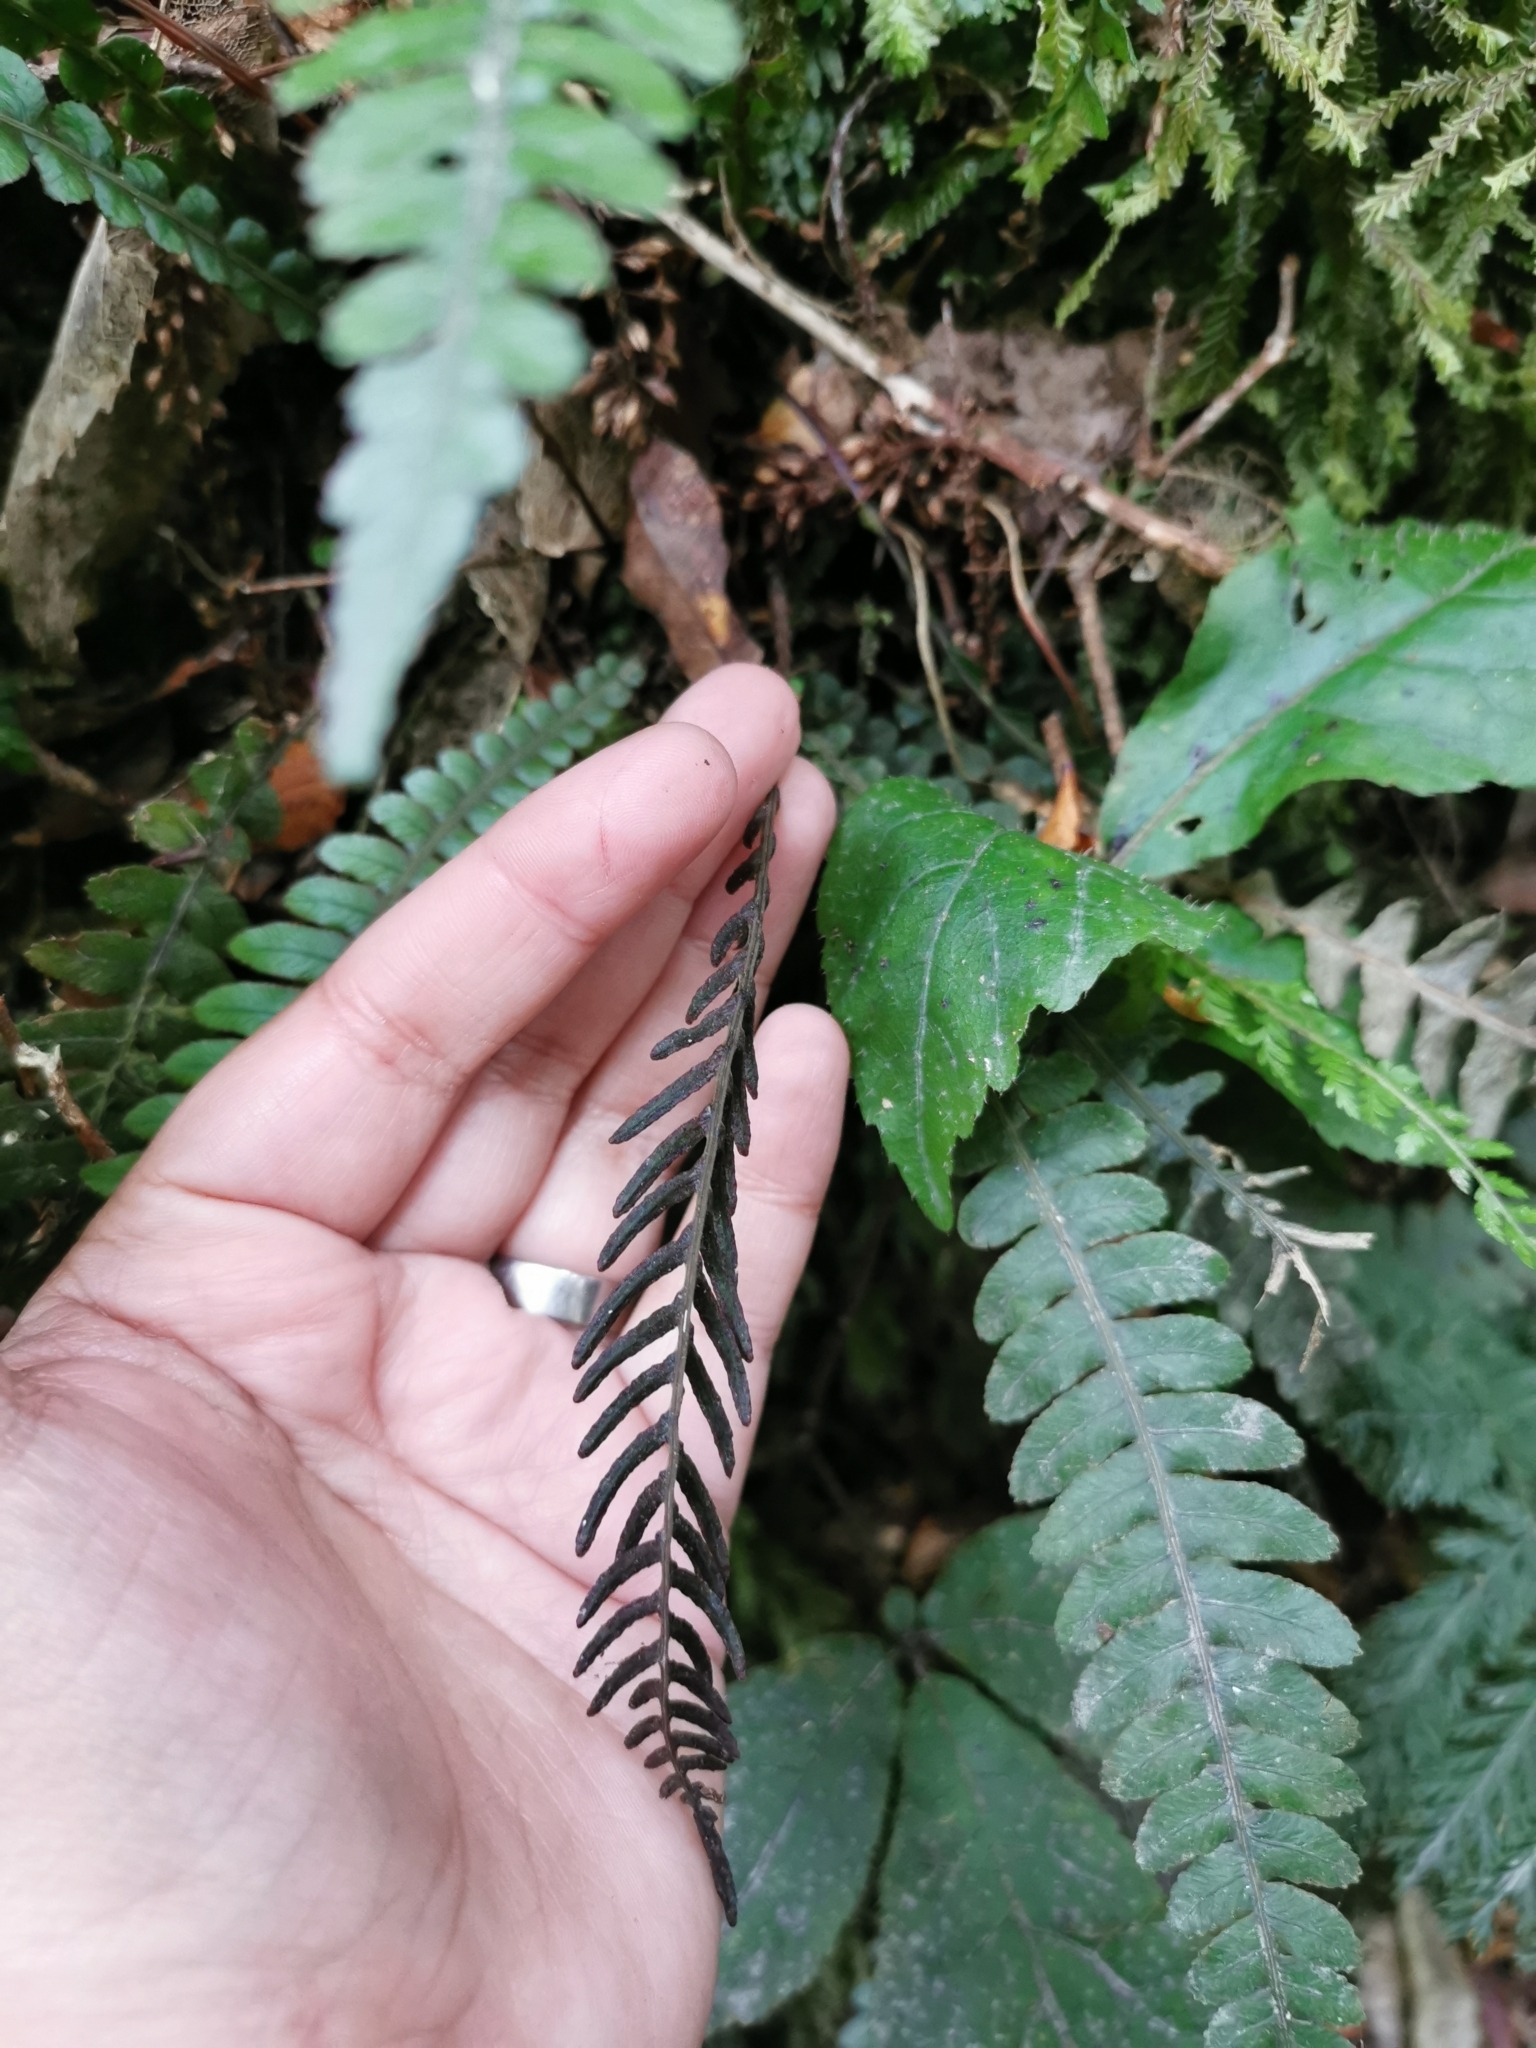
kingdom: Plantae
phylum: Tracheophyta
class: Polypodiopsida
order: Polypodiales
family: Blechnaceae
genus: Austroblechnum
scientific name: Austroblechnum lanceolatum
